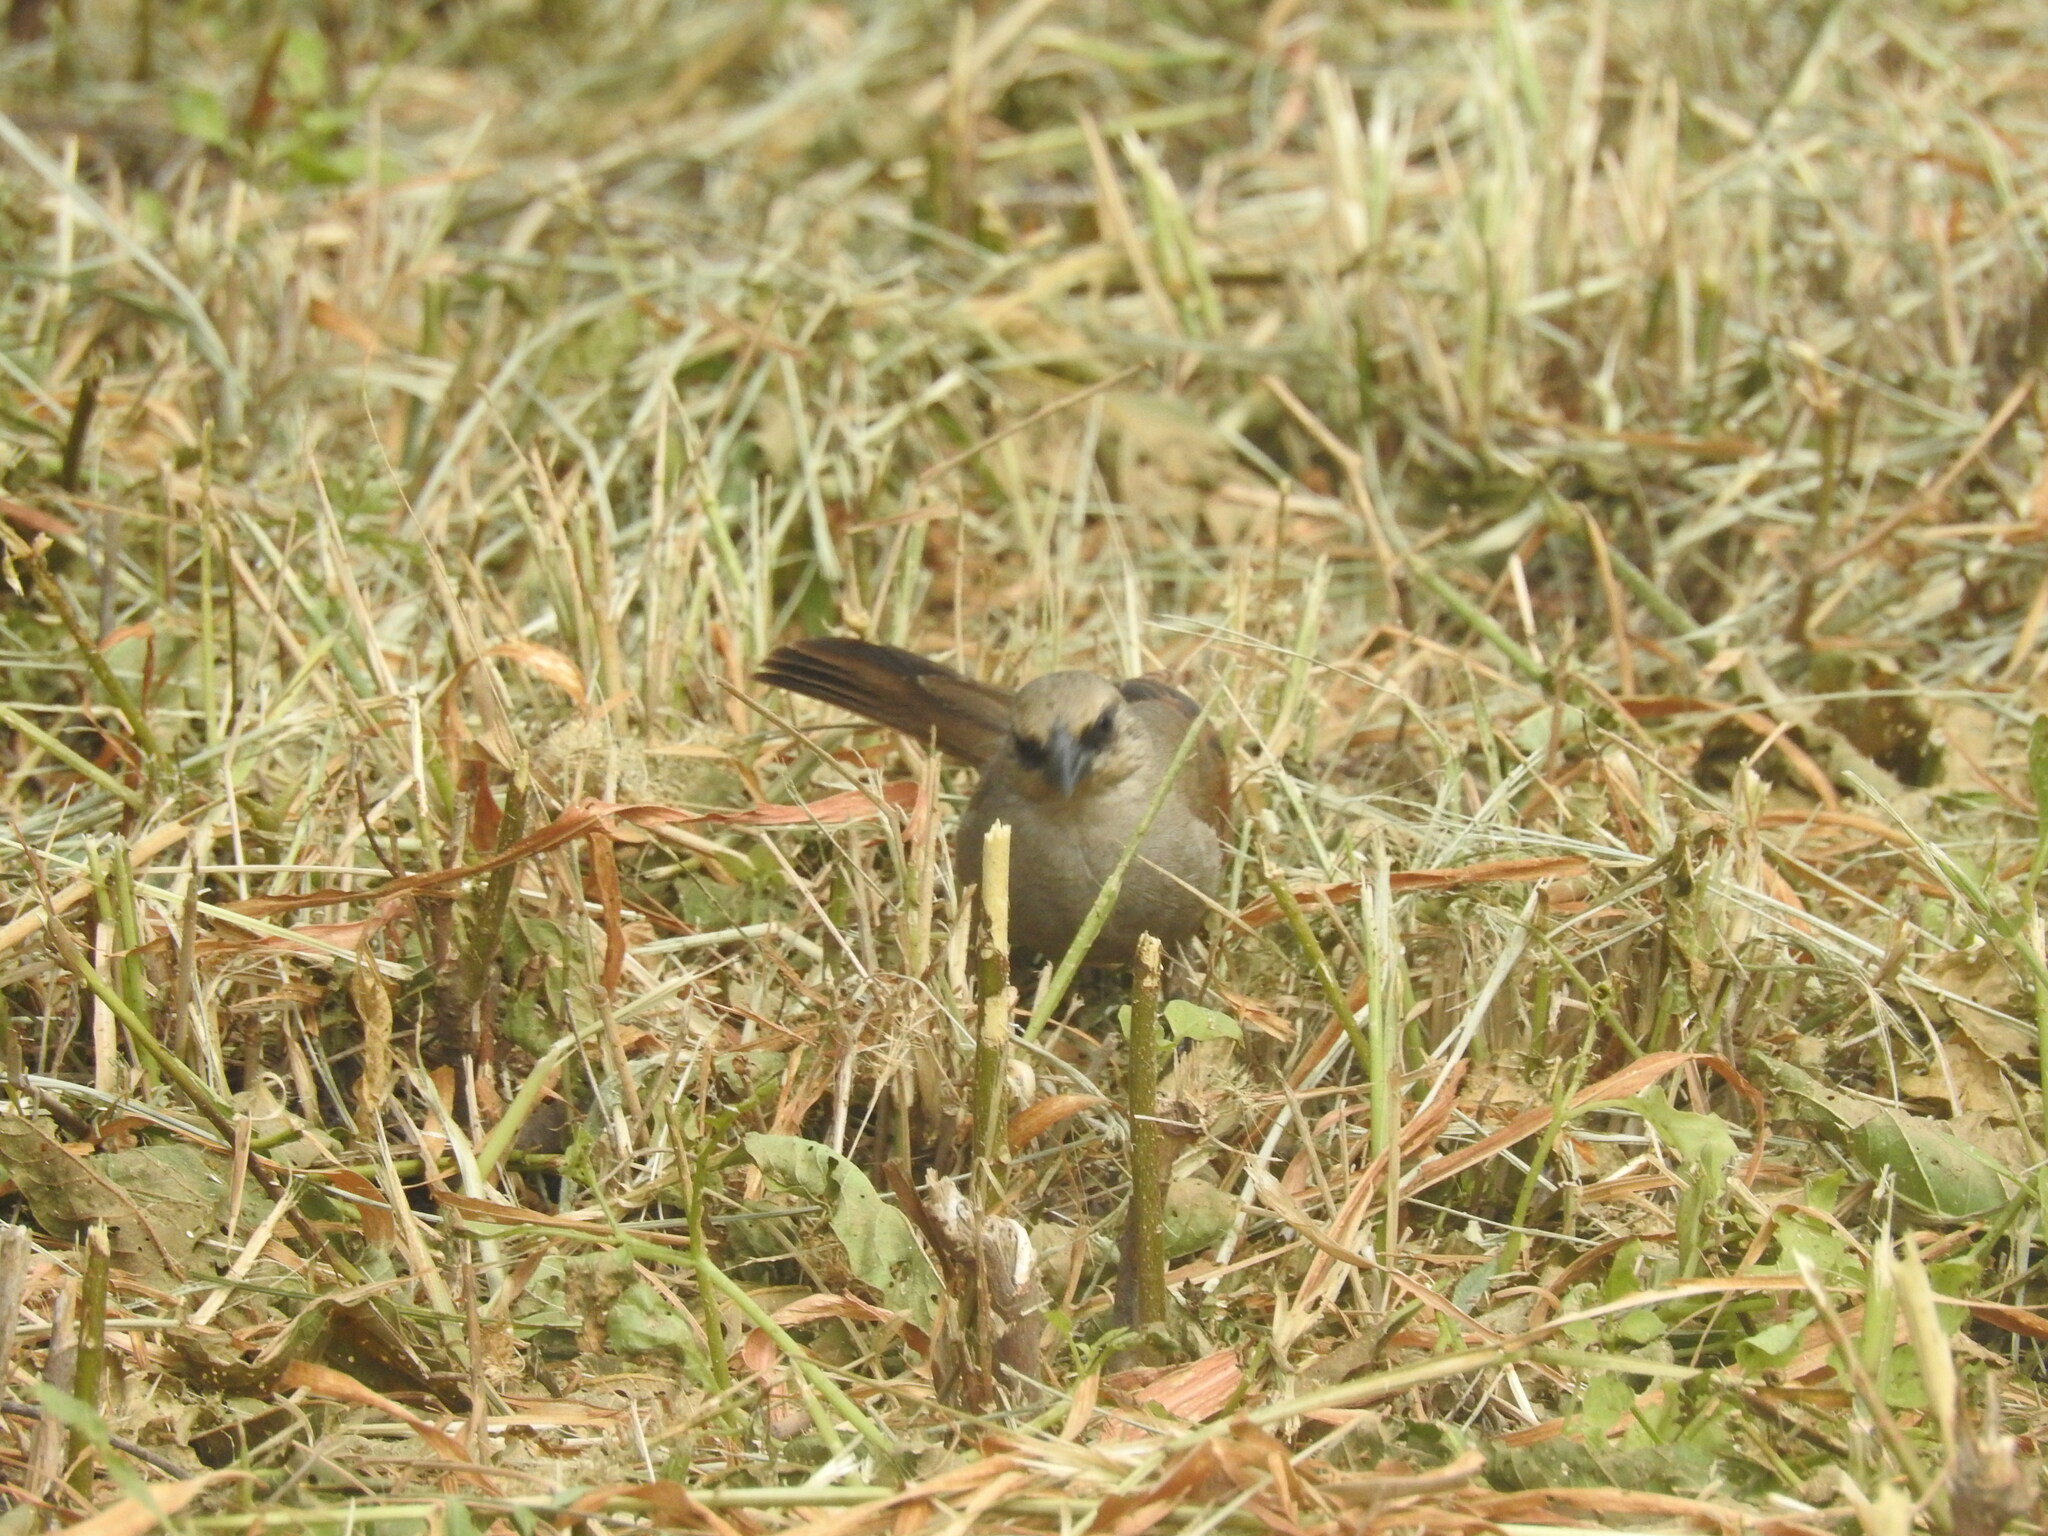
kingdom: Animalia
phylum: Chordata
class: Aves
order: Passeriformes
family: Icteridae
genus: Agelaioides
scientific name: Agelaioides badius
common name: Baywing
